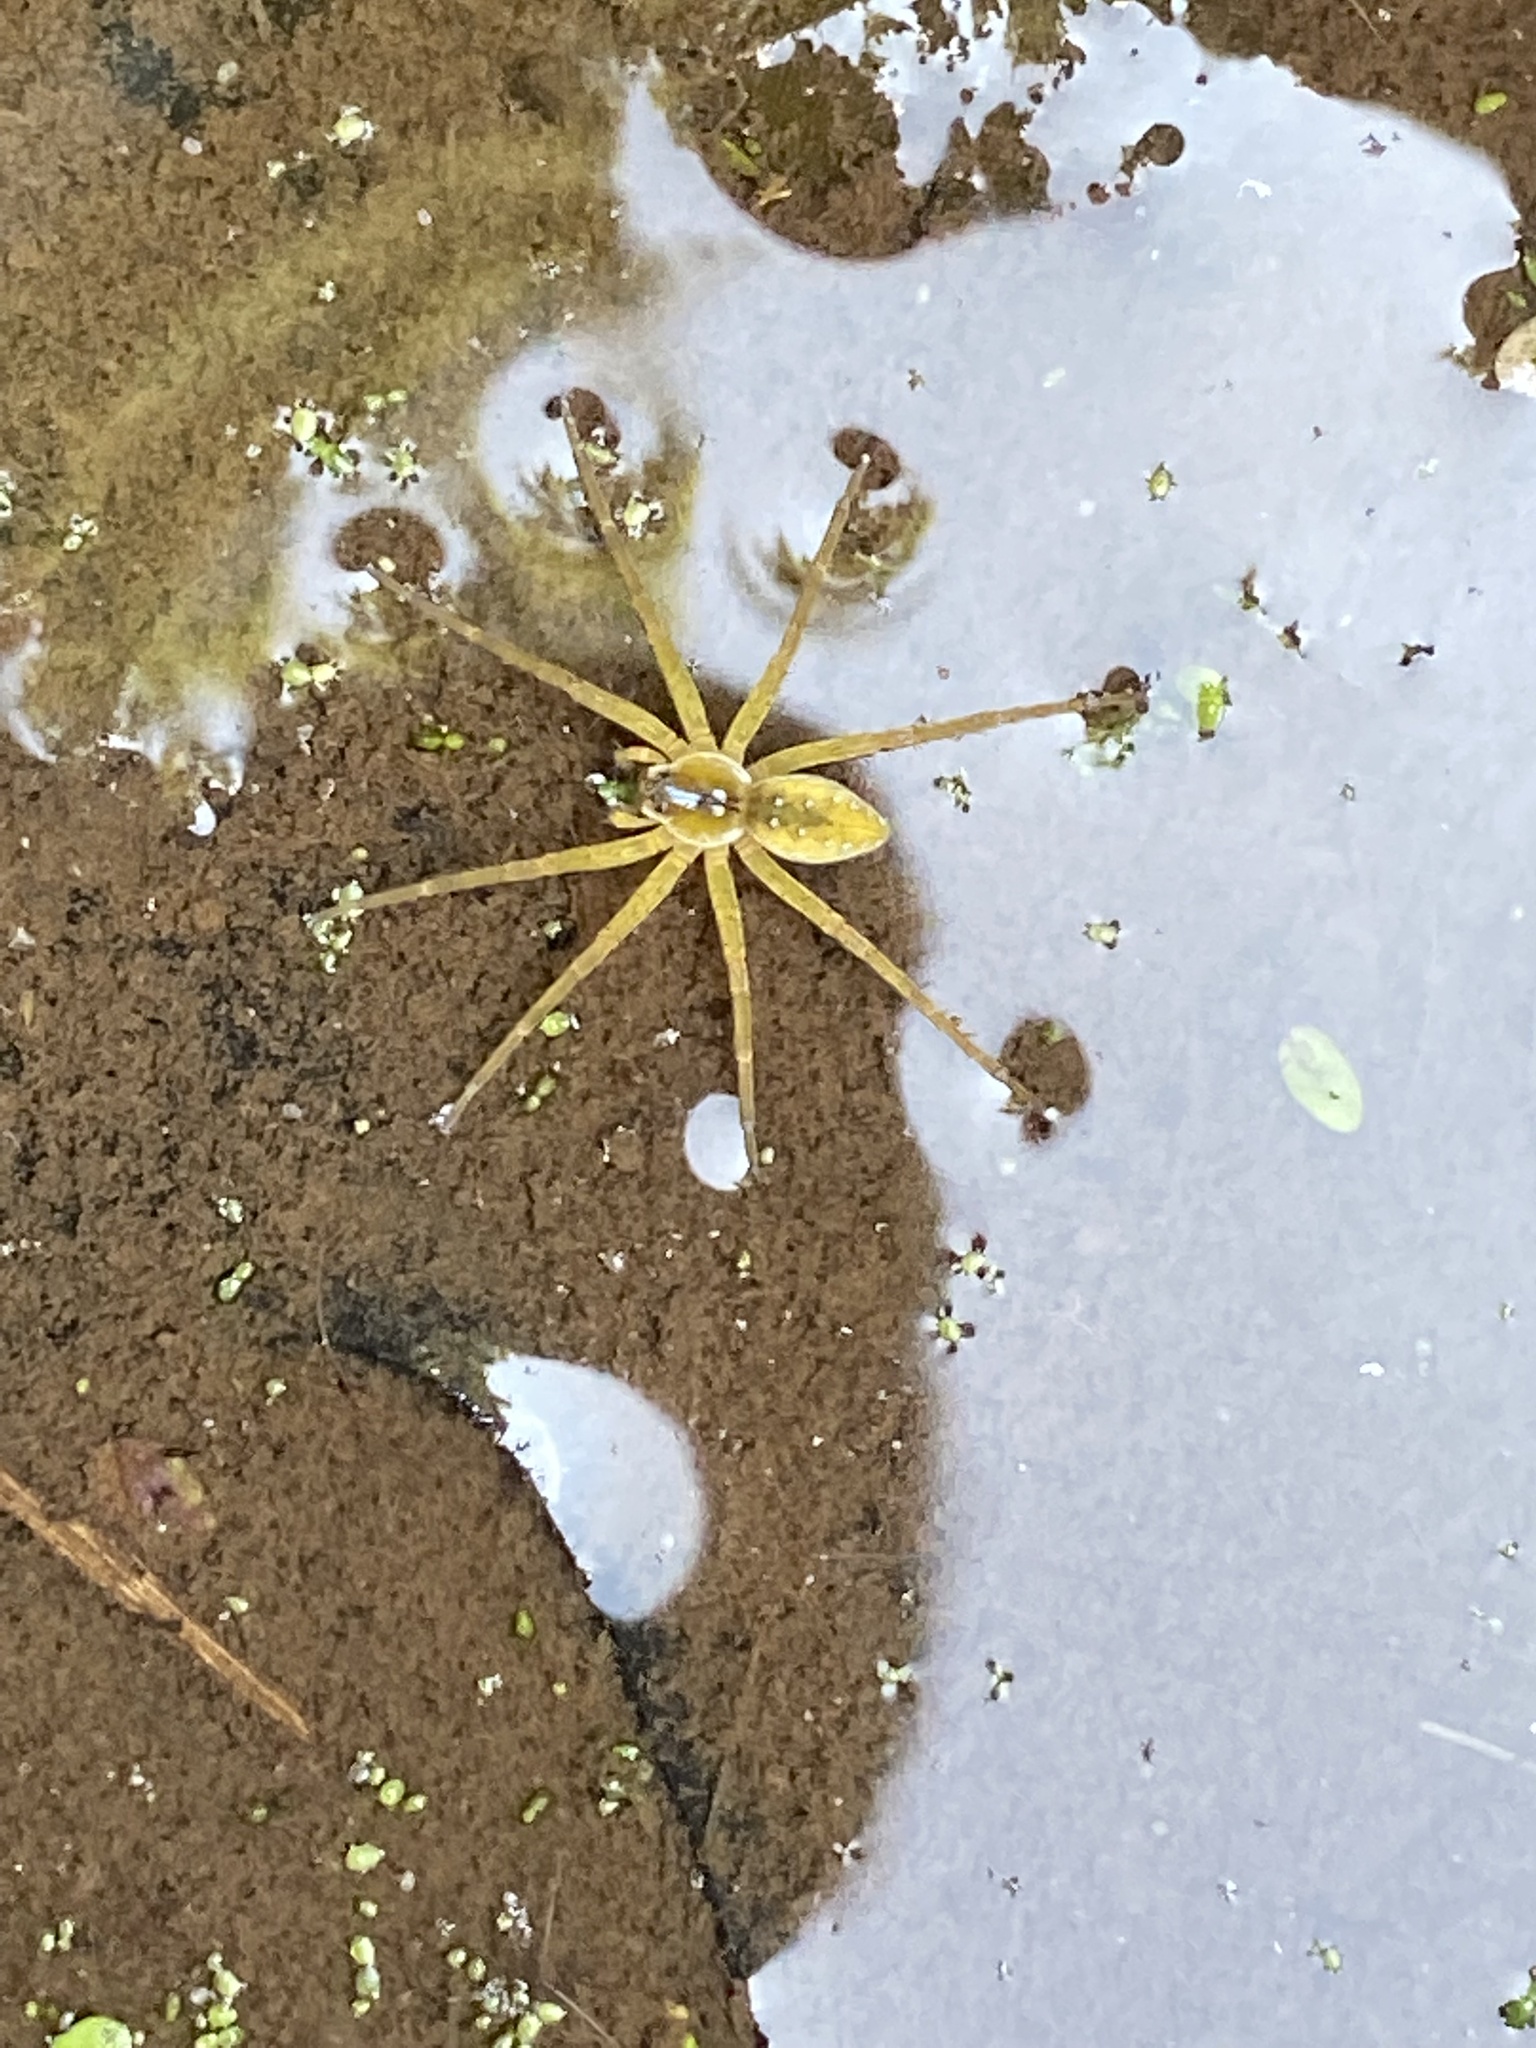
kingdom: Animalia
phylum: Arthropoda
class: Arachnida
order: Araneae
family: Pisauridae
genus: Dolomedes
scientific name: Dolomedes triton
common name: Six-spotted fishing spider
